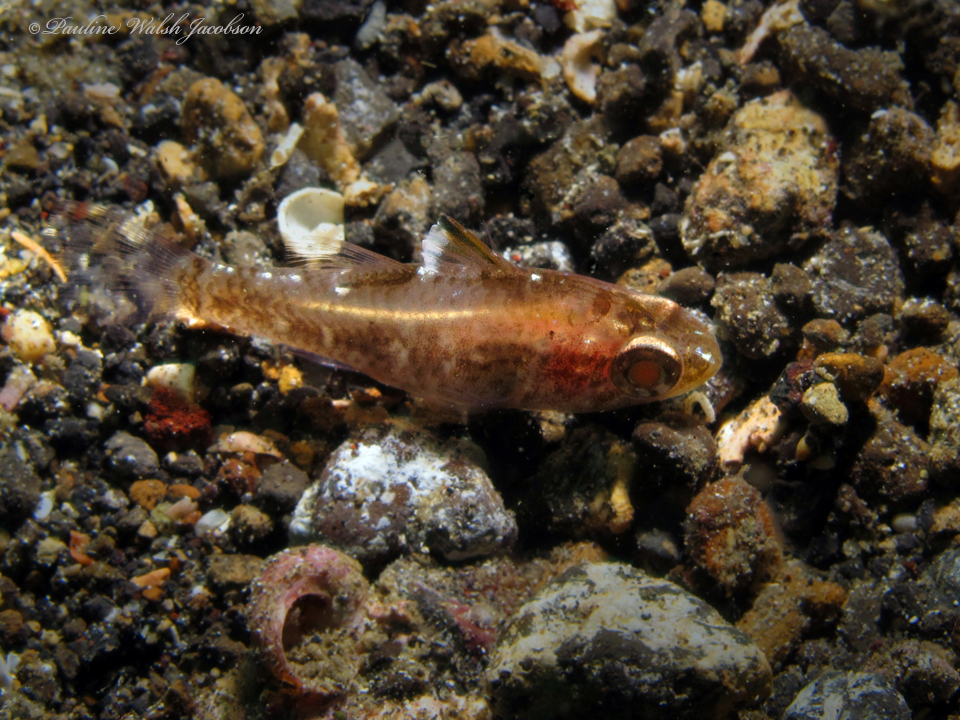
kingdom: Animalia
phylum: Chordata
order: Perciformes
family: Apogonidae
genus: Ostorhinchus
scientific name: Ostorhinchus hoevenii
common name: Flag-fin cardinal
